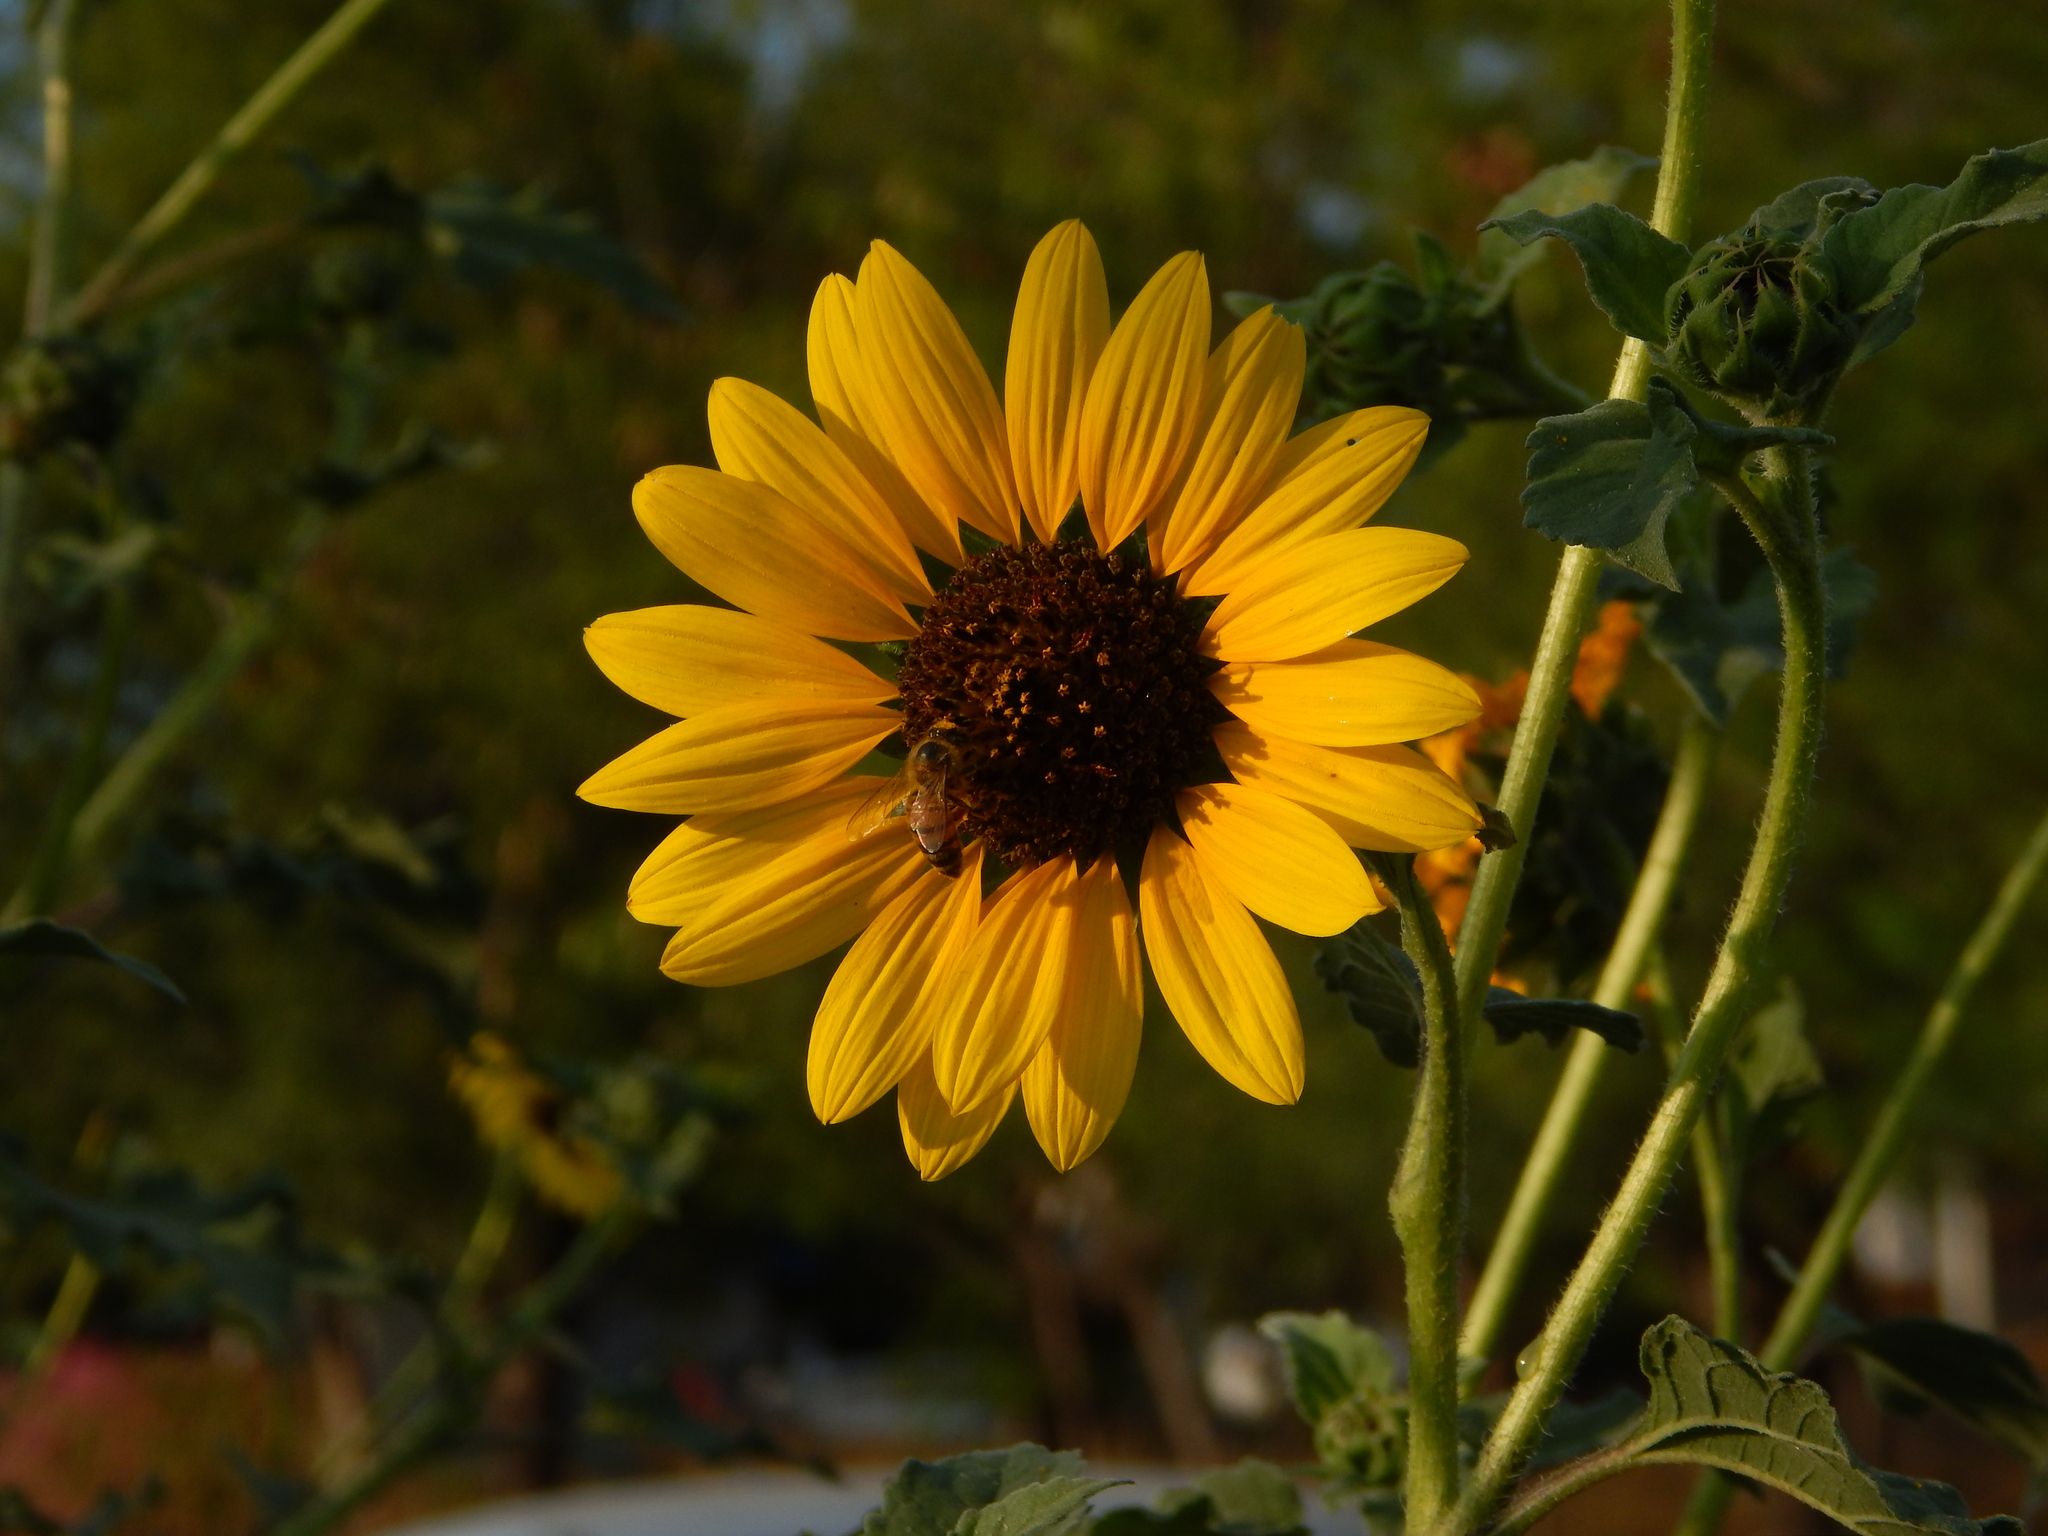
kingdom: Plantae
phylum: Tracheophyta
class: Magnoliopsida
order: Asterales
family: Asteraceae
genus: Helianthus
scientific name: Helianthus annuus
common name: Sunflower
